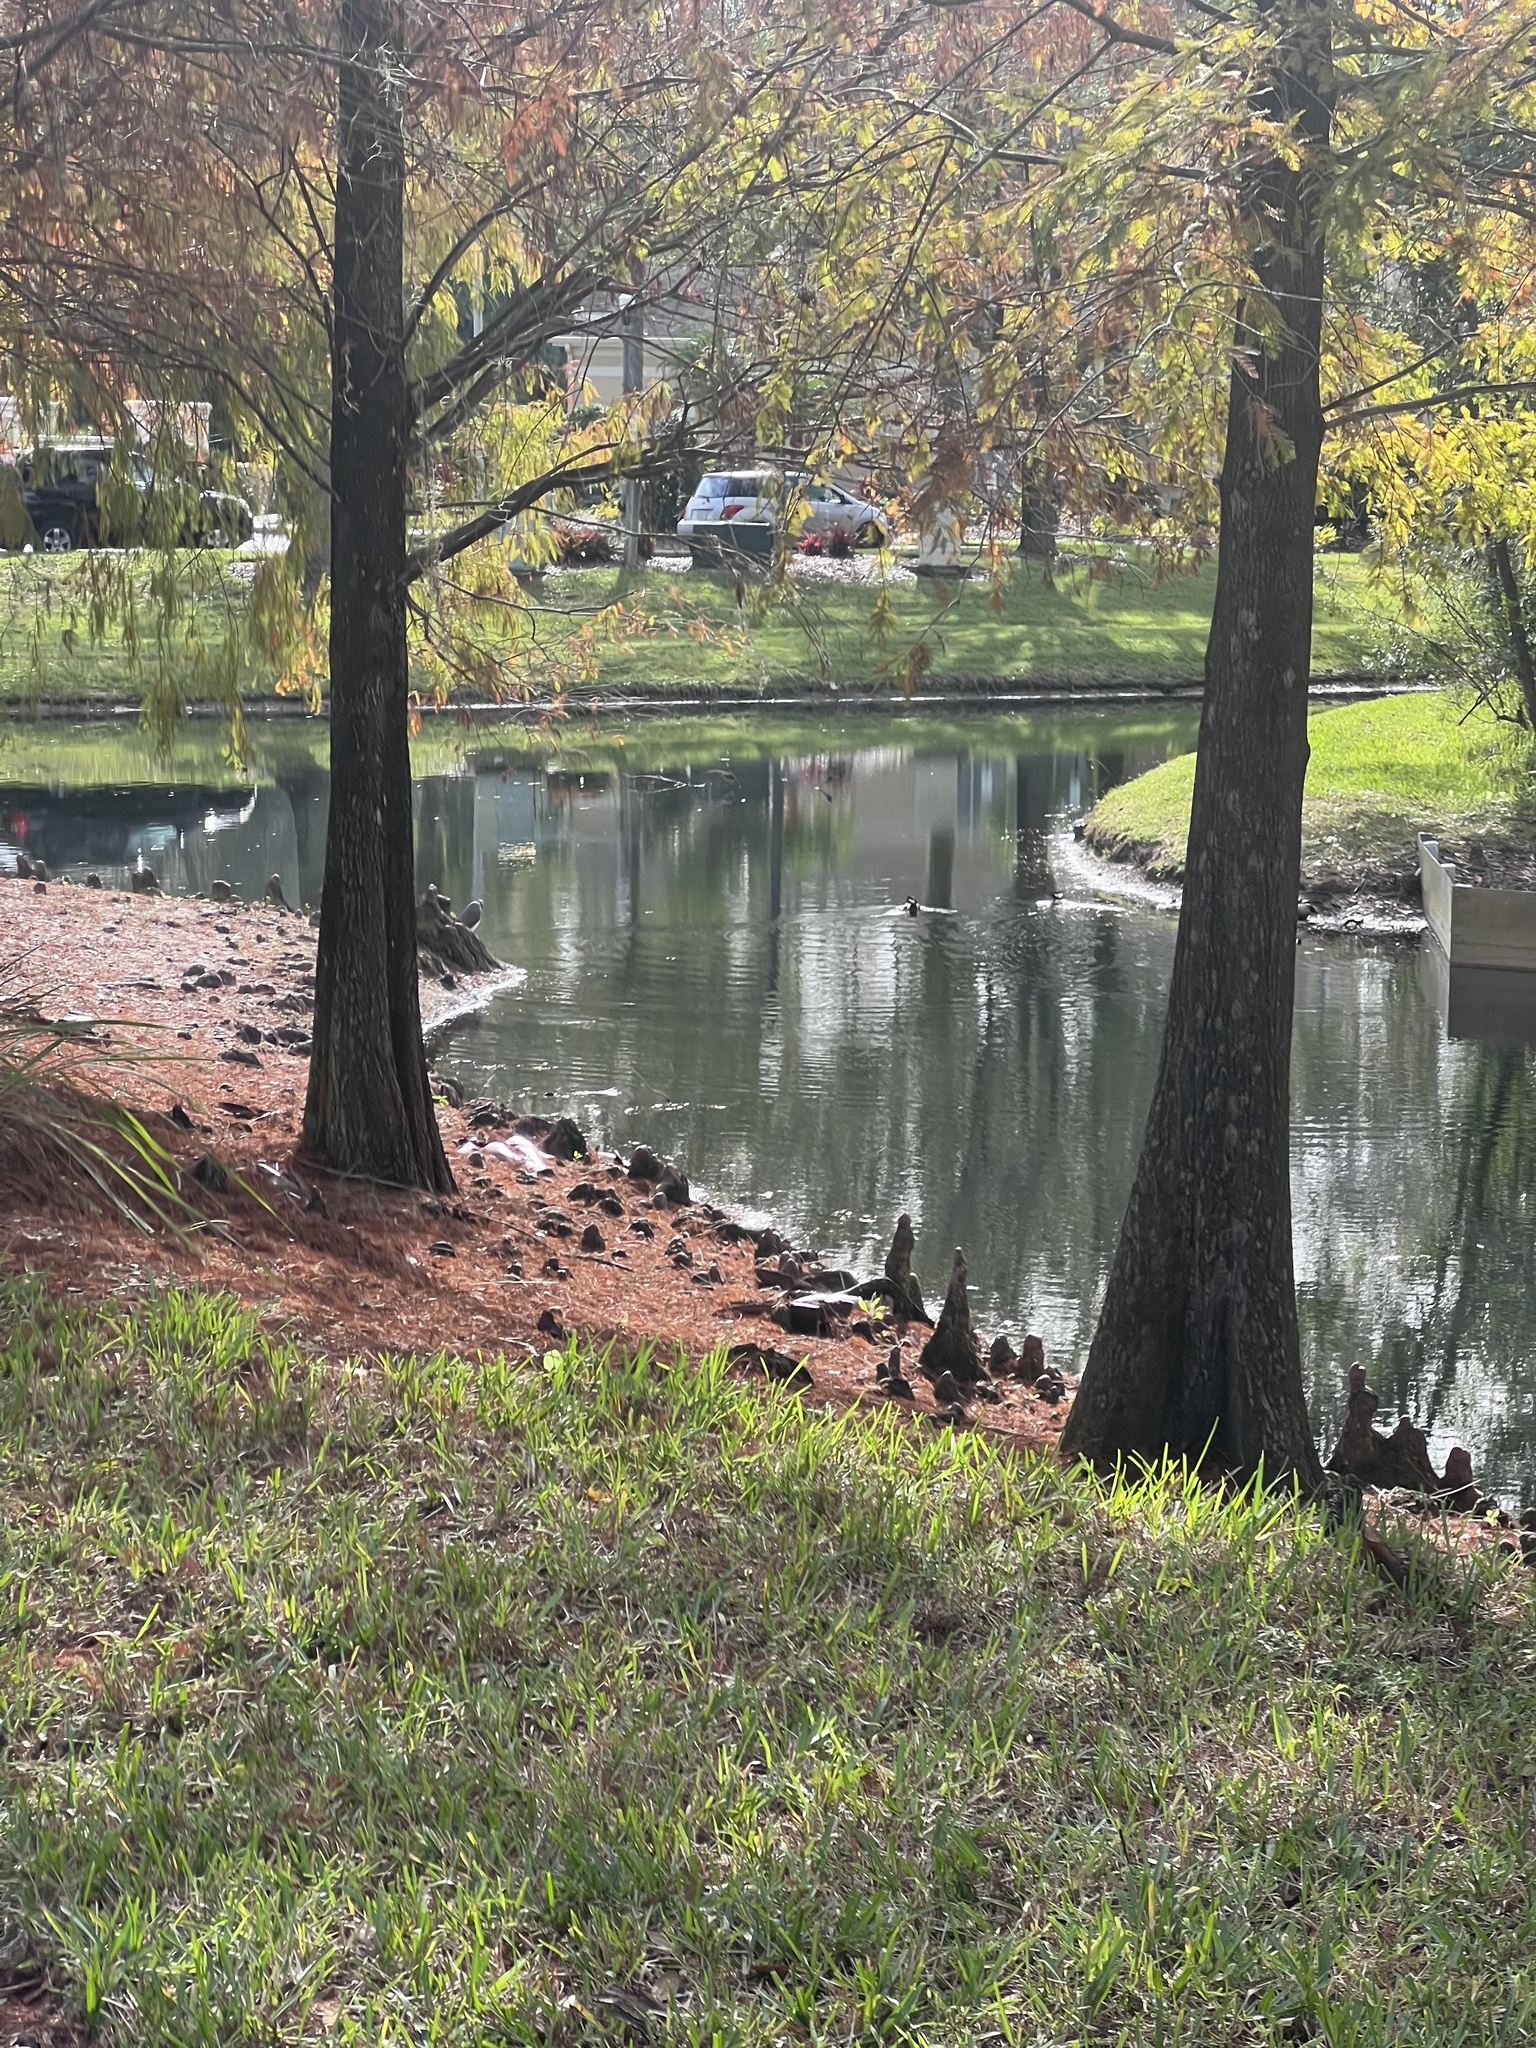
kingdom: Animalia
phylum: Chordata
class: Aves
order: Anseriformes
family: Anatidae
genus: Lophodytes
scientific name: Lophodytes cucullatus
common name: Hooded merganser
